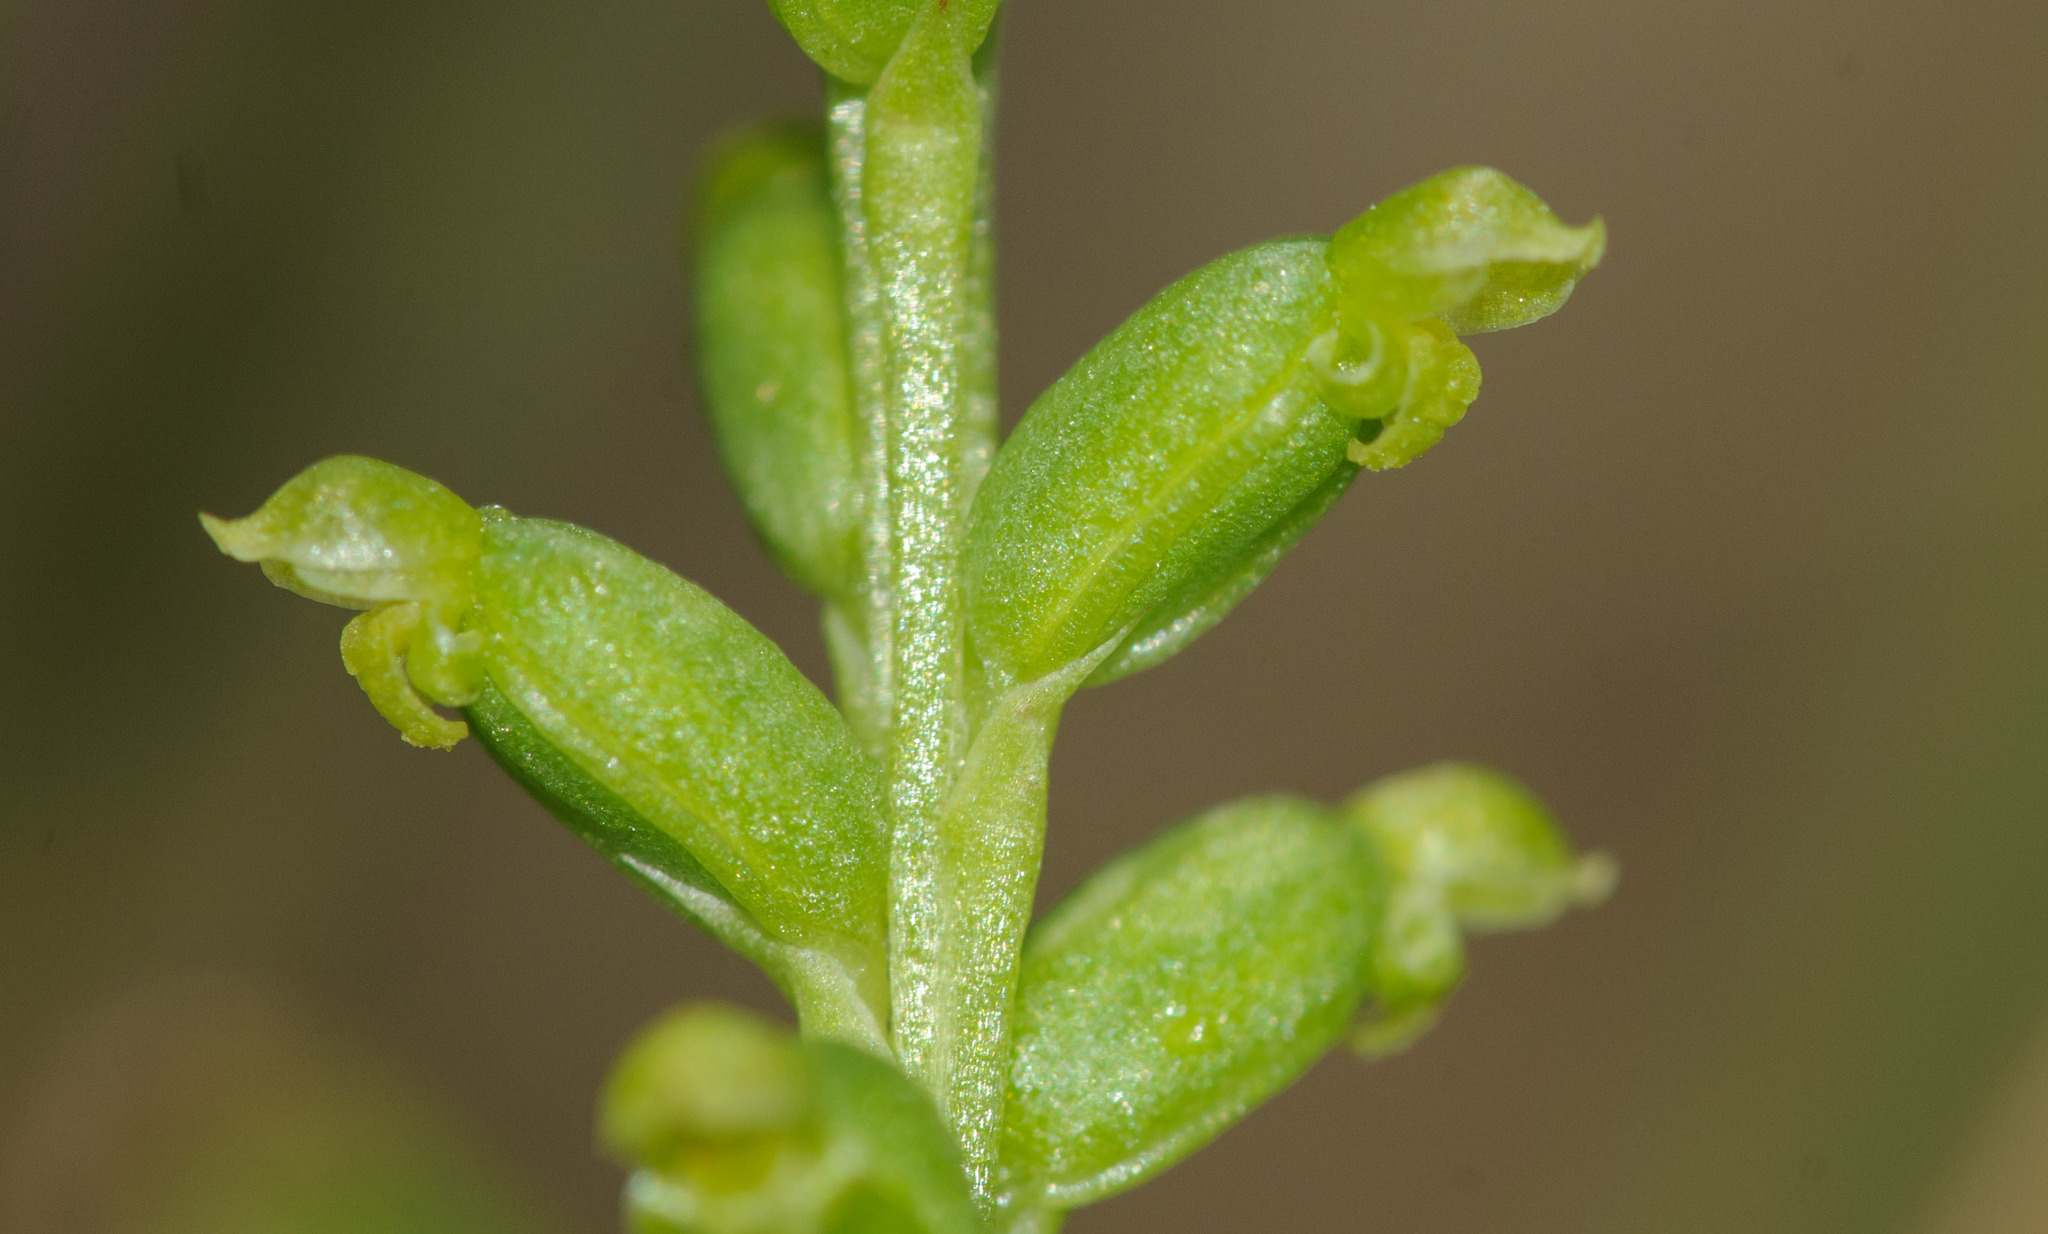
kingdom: Plantae
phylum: Tracheophyta
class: Liliopsida
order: Asparagales
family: Orchidaceae
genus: Microtis
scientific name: Microtis parviflora
